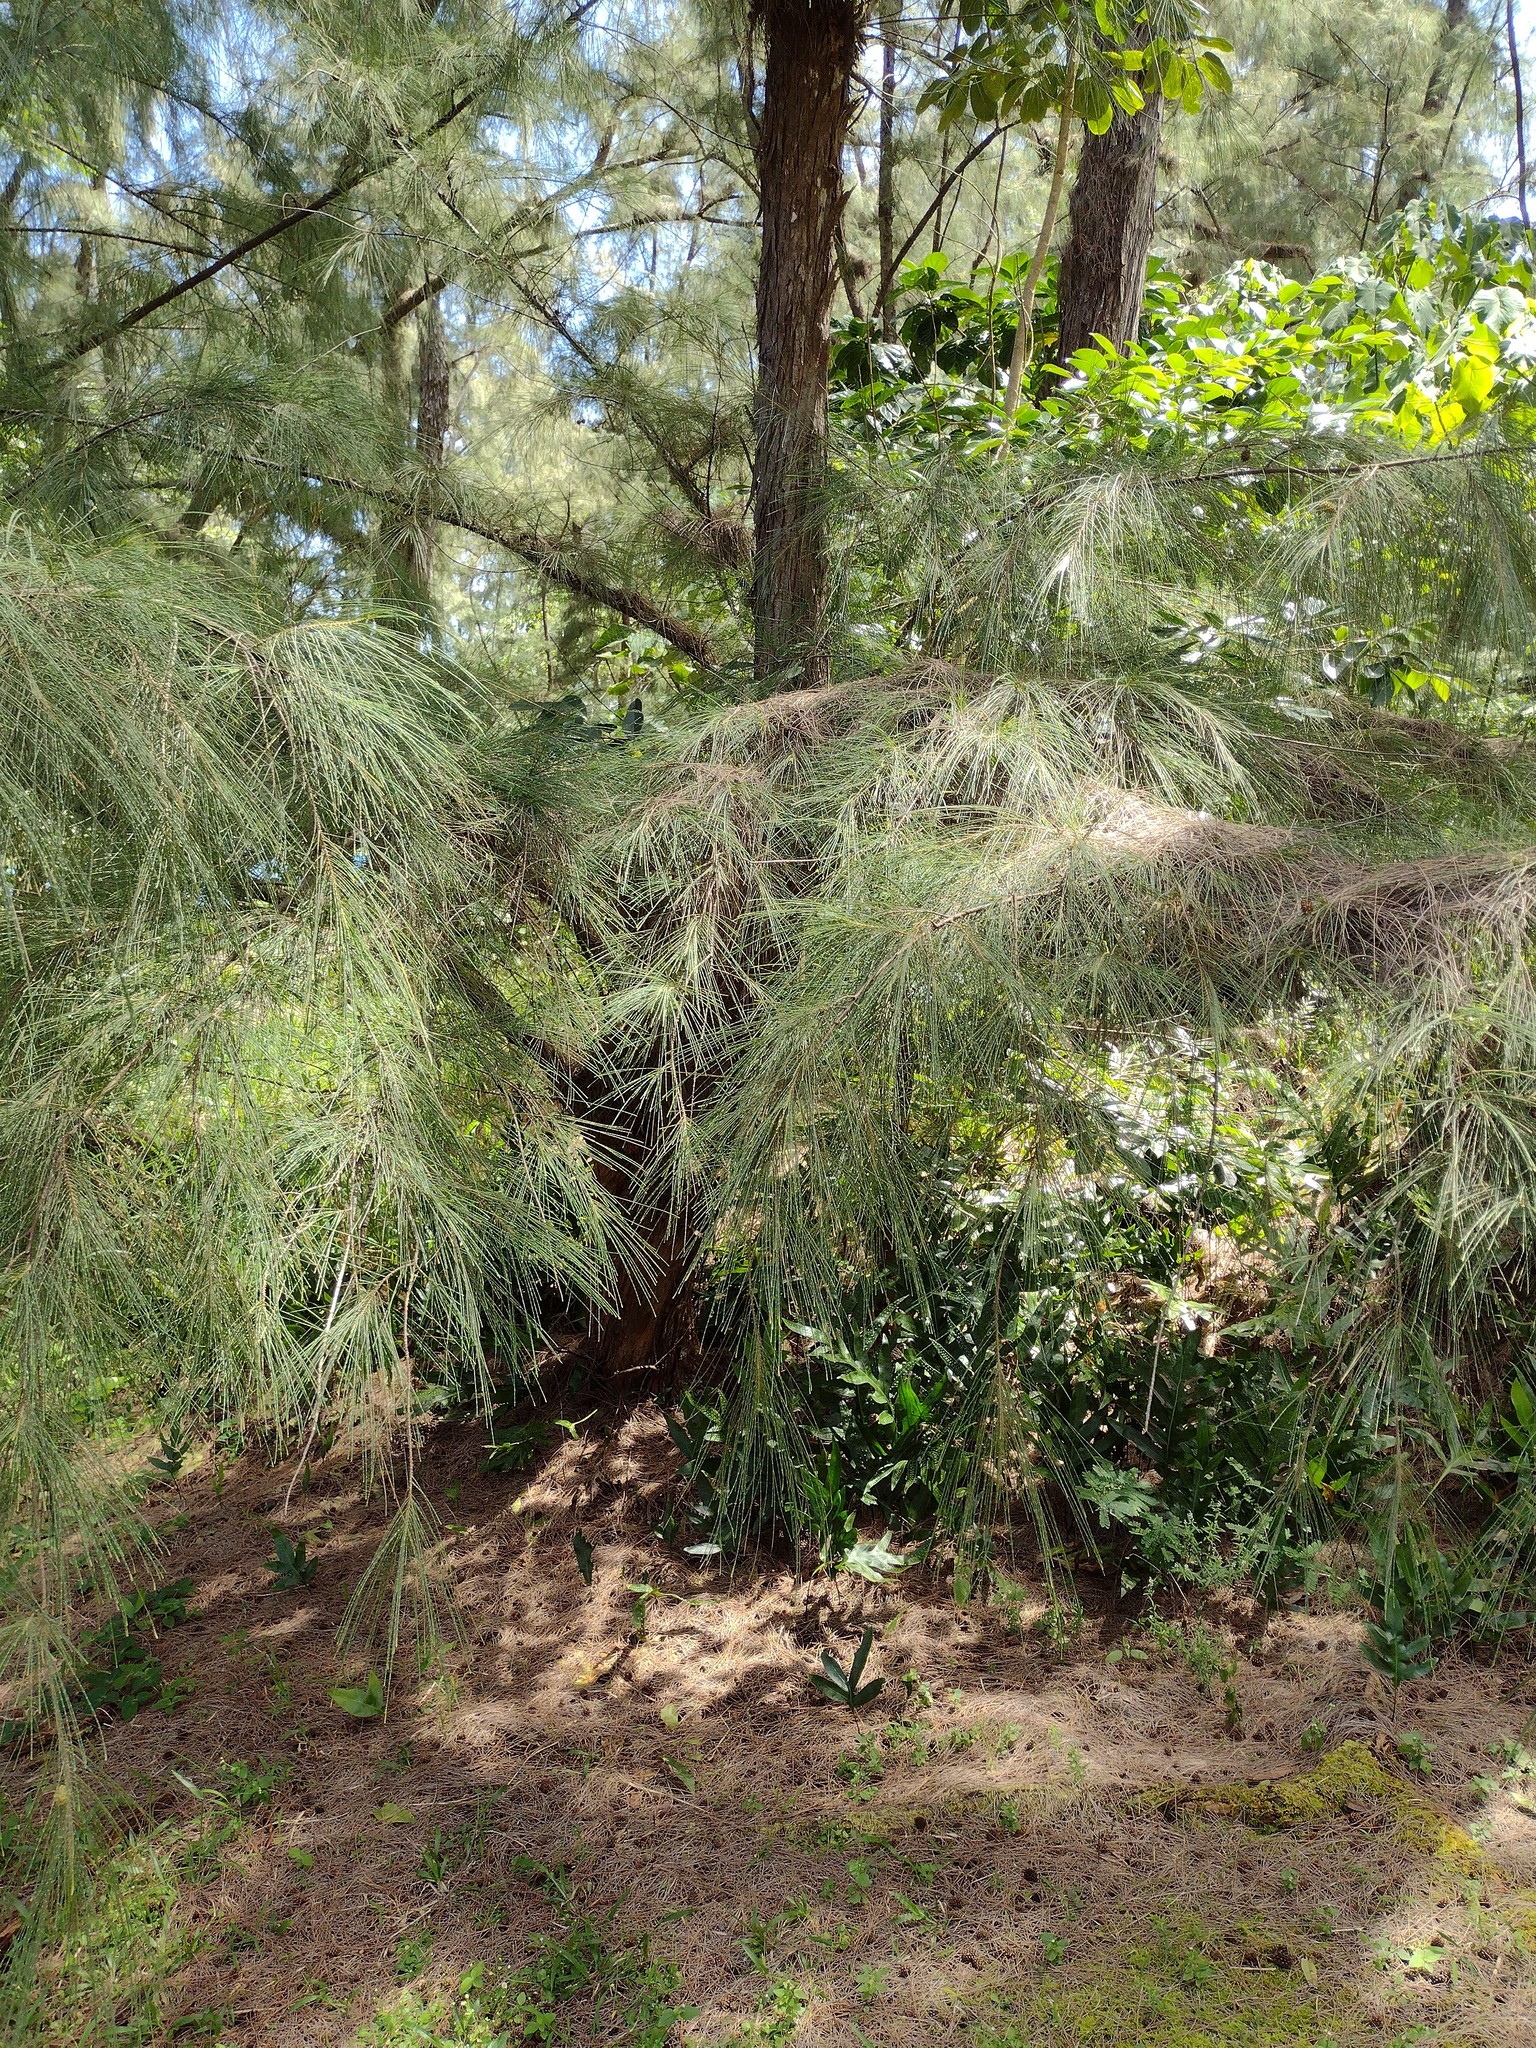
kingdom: Plantae
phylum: Tracheophyta
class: Magnoliopsida
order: Fagales
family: Casuarinaceae
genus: Casuarina
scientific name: Casuarina equisetifolia
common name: Beach sheoak
